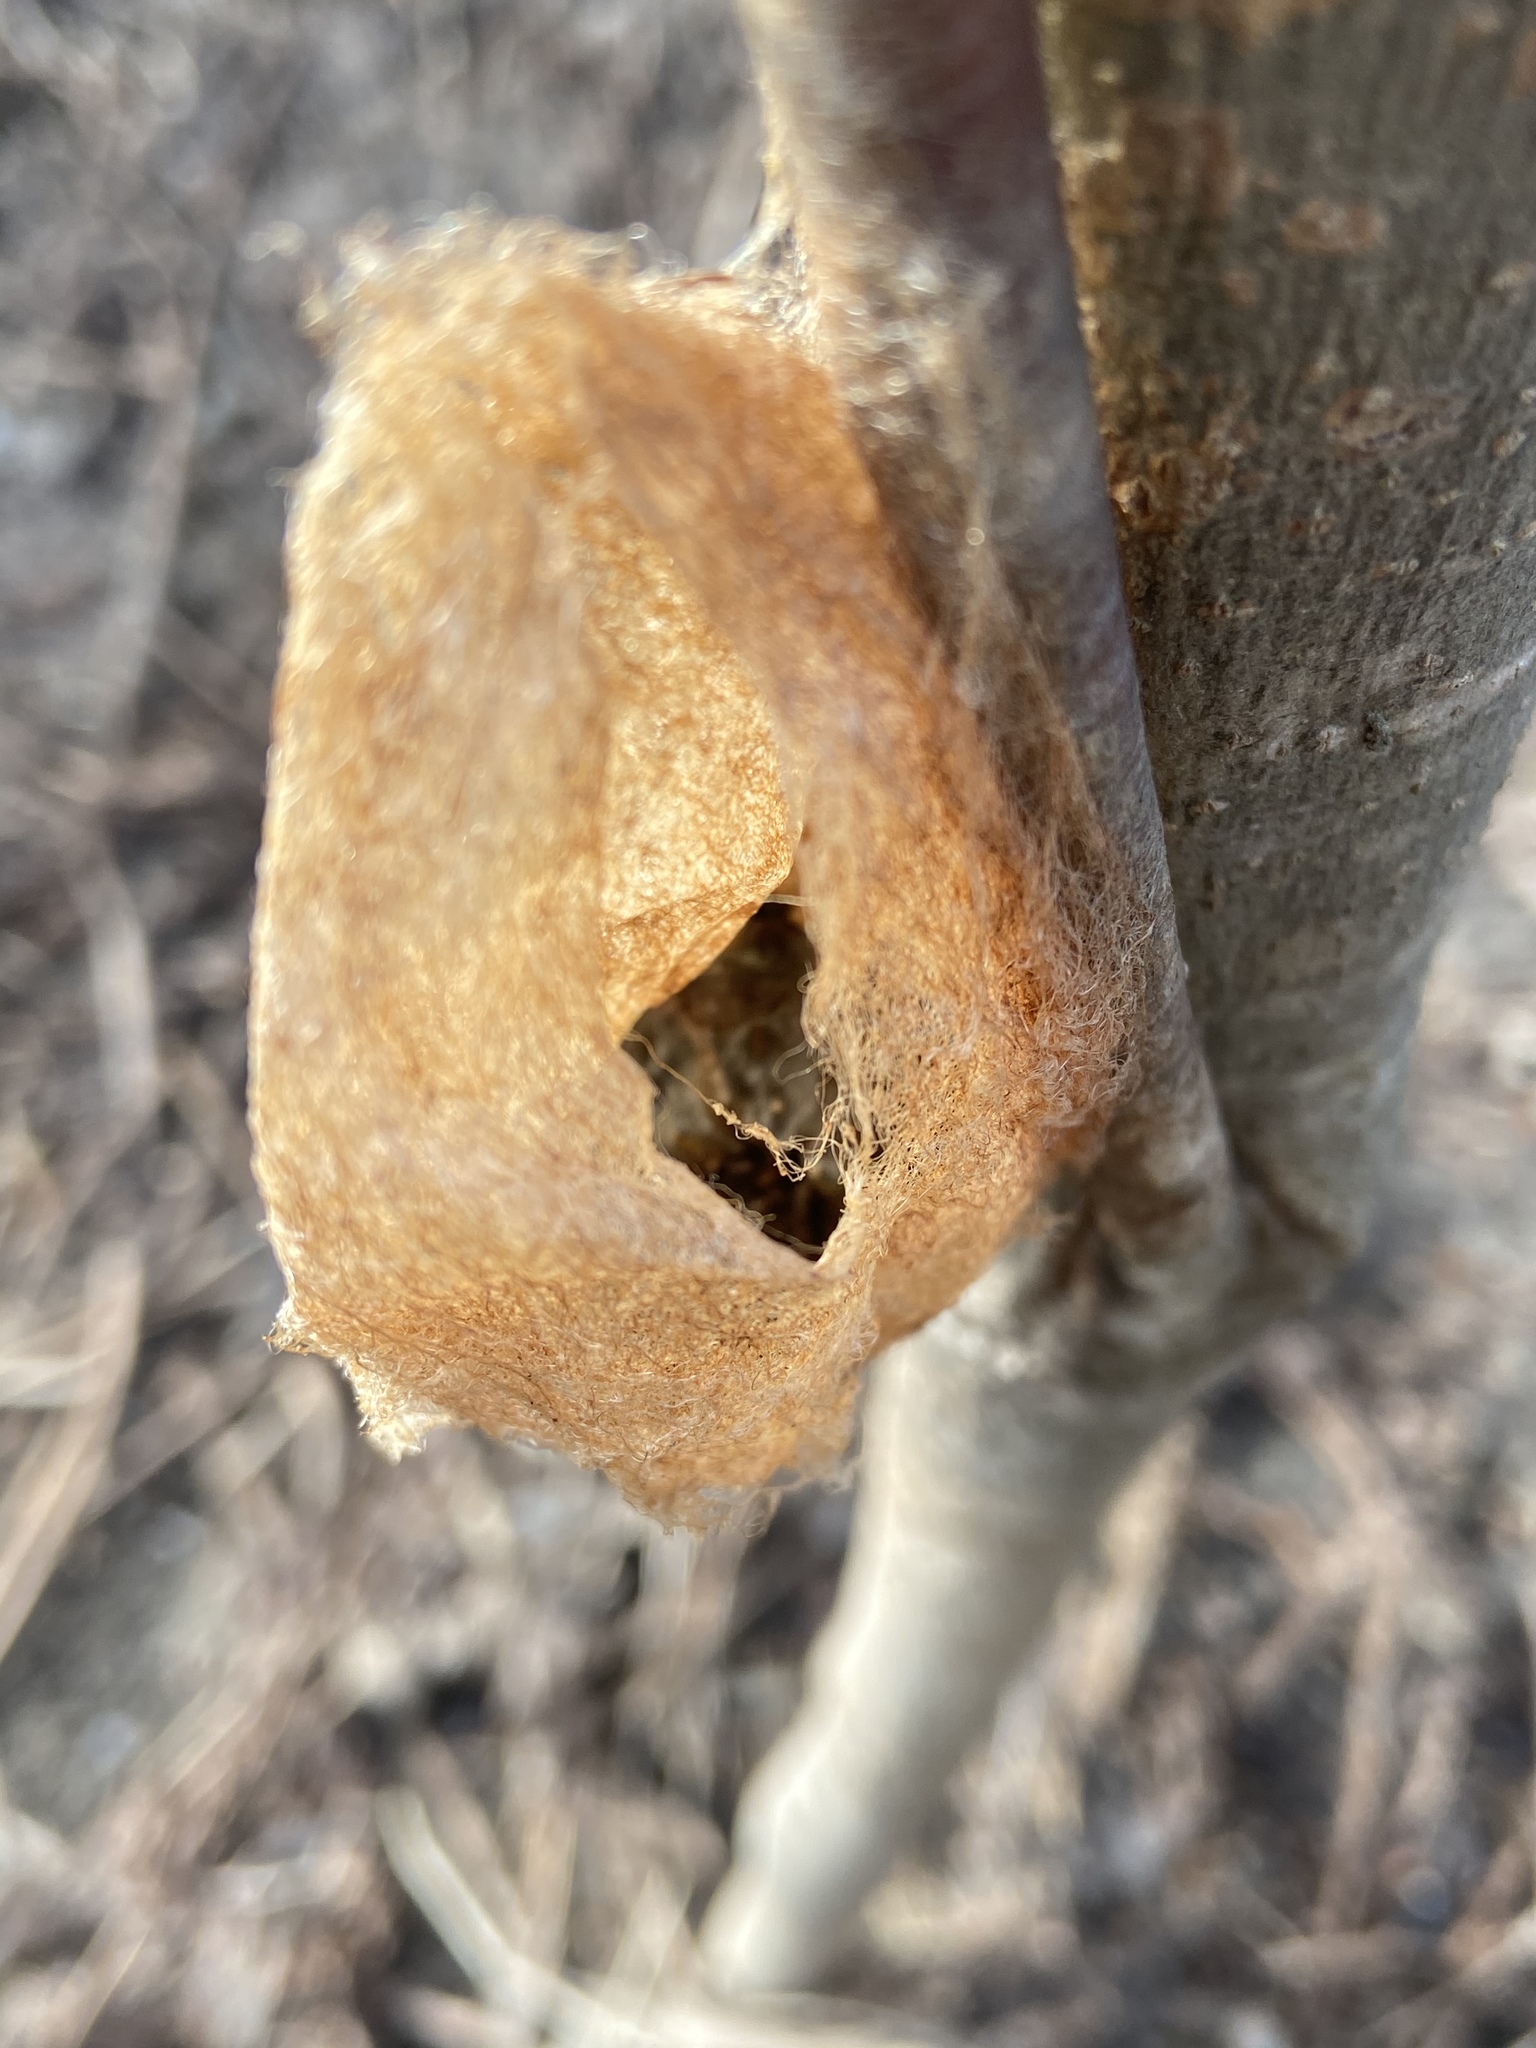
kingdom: Animalia
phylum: Arthropoda
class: Insecta
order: Lepidoptera
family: Saturniidae
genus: Hyalophora
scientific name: Hyalophora cecropia
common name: Cecropia silkmoth
